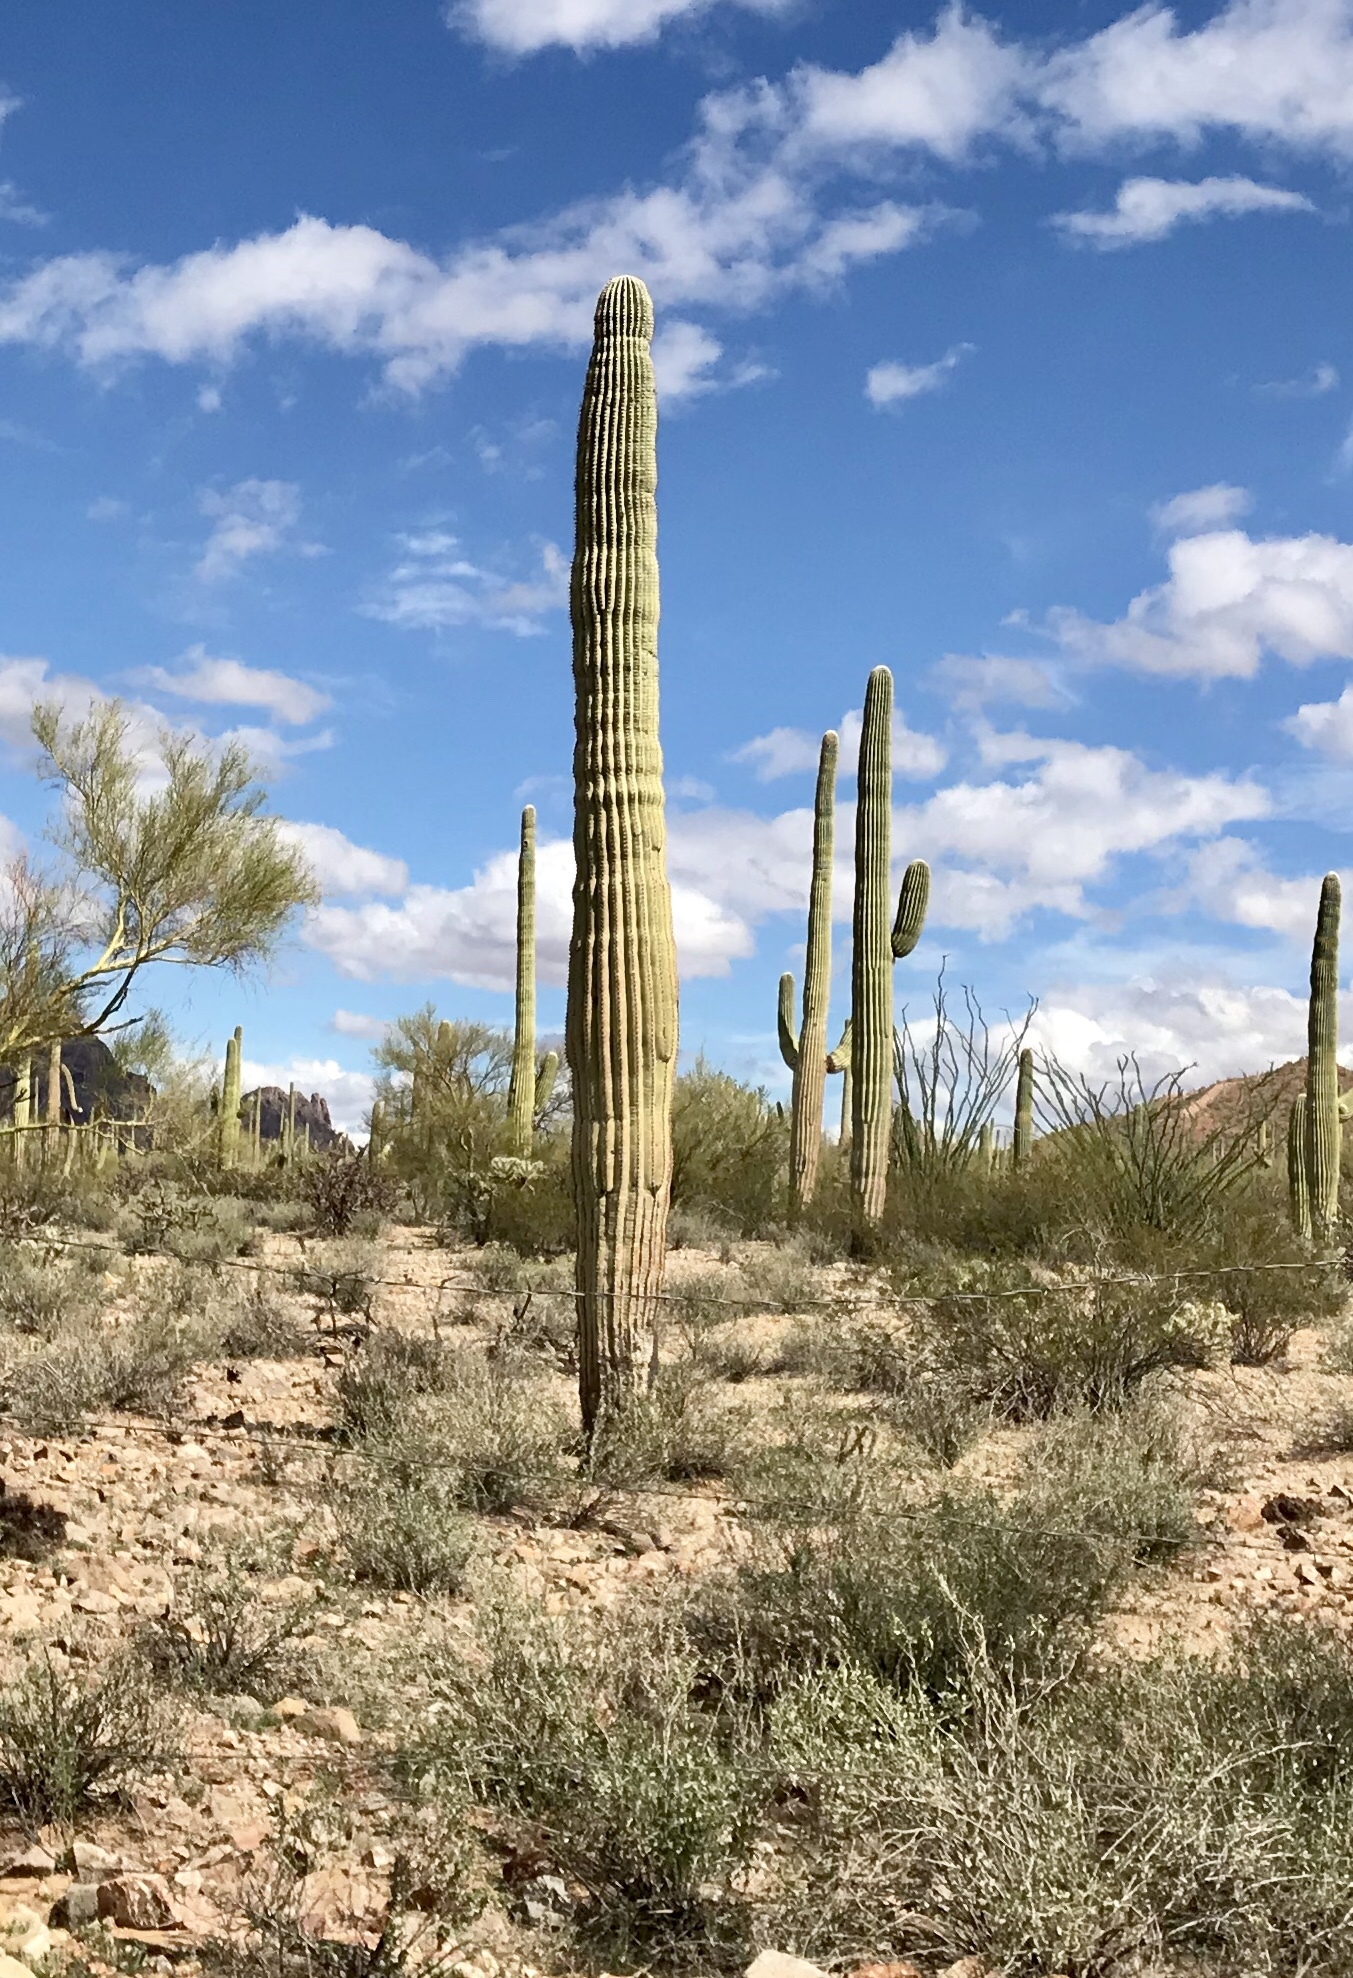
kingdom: Plantae
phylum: Tracheophyta
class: Magnoliopsida
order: Caryophyllales
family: Cactaceae
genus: Carnegiea
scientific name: Carnegiea gigantea
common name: Saguaro
